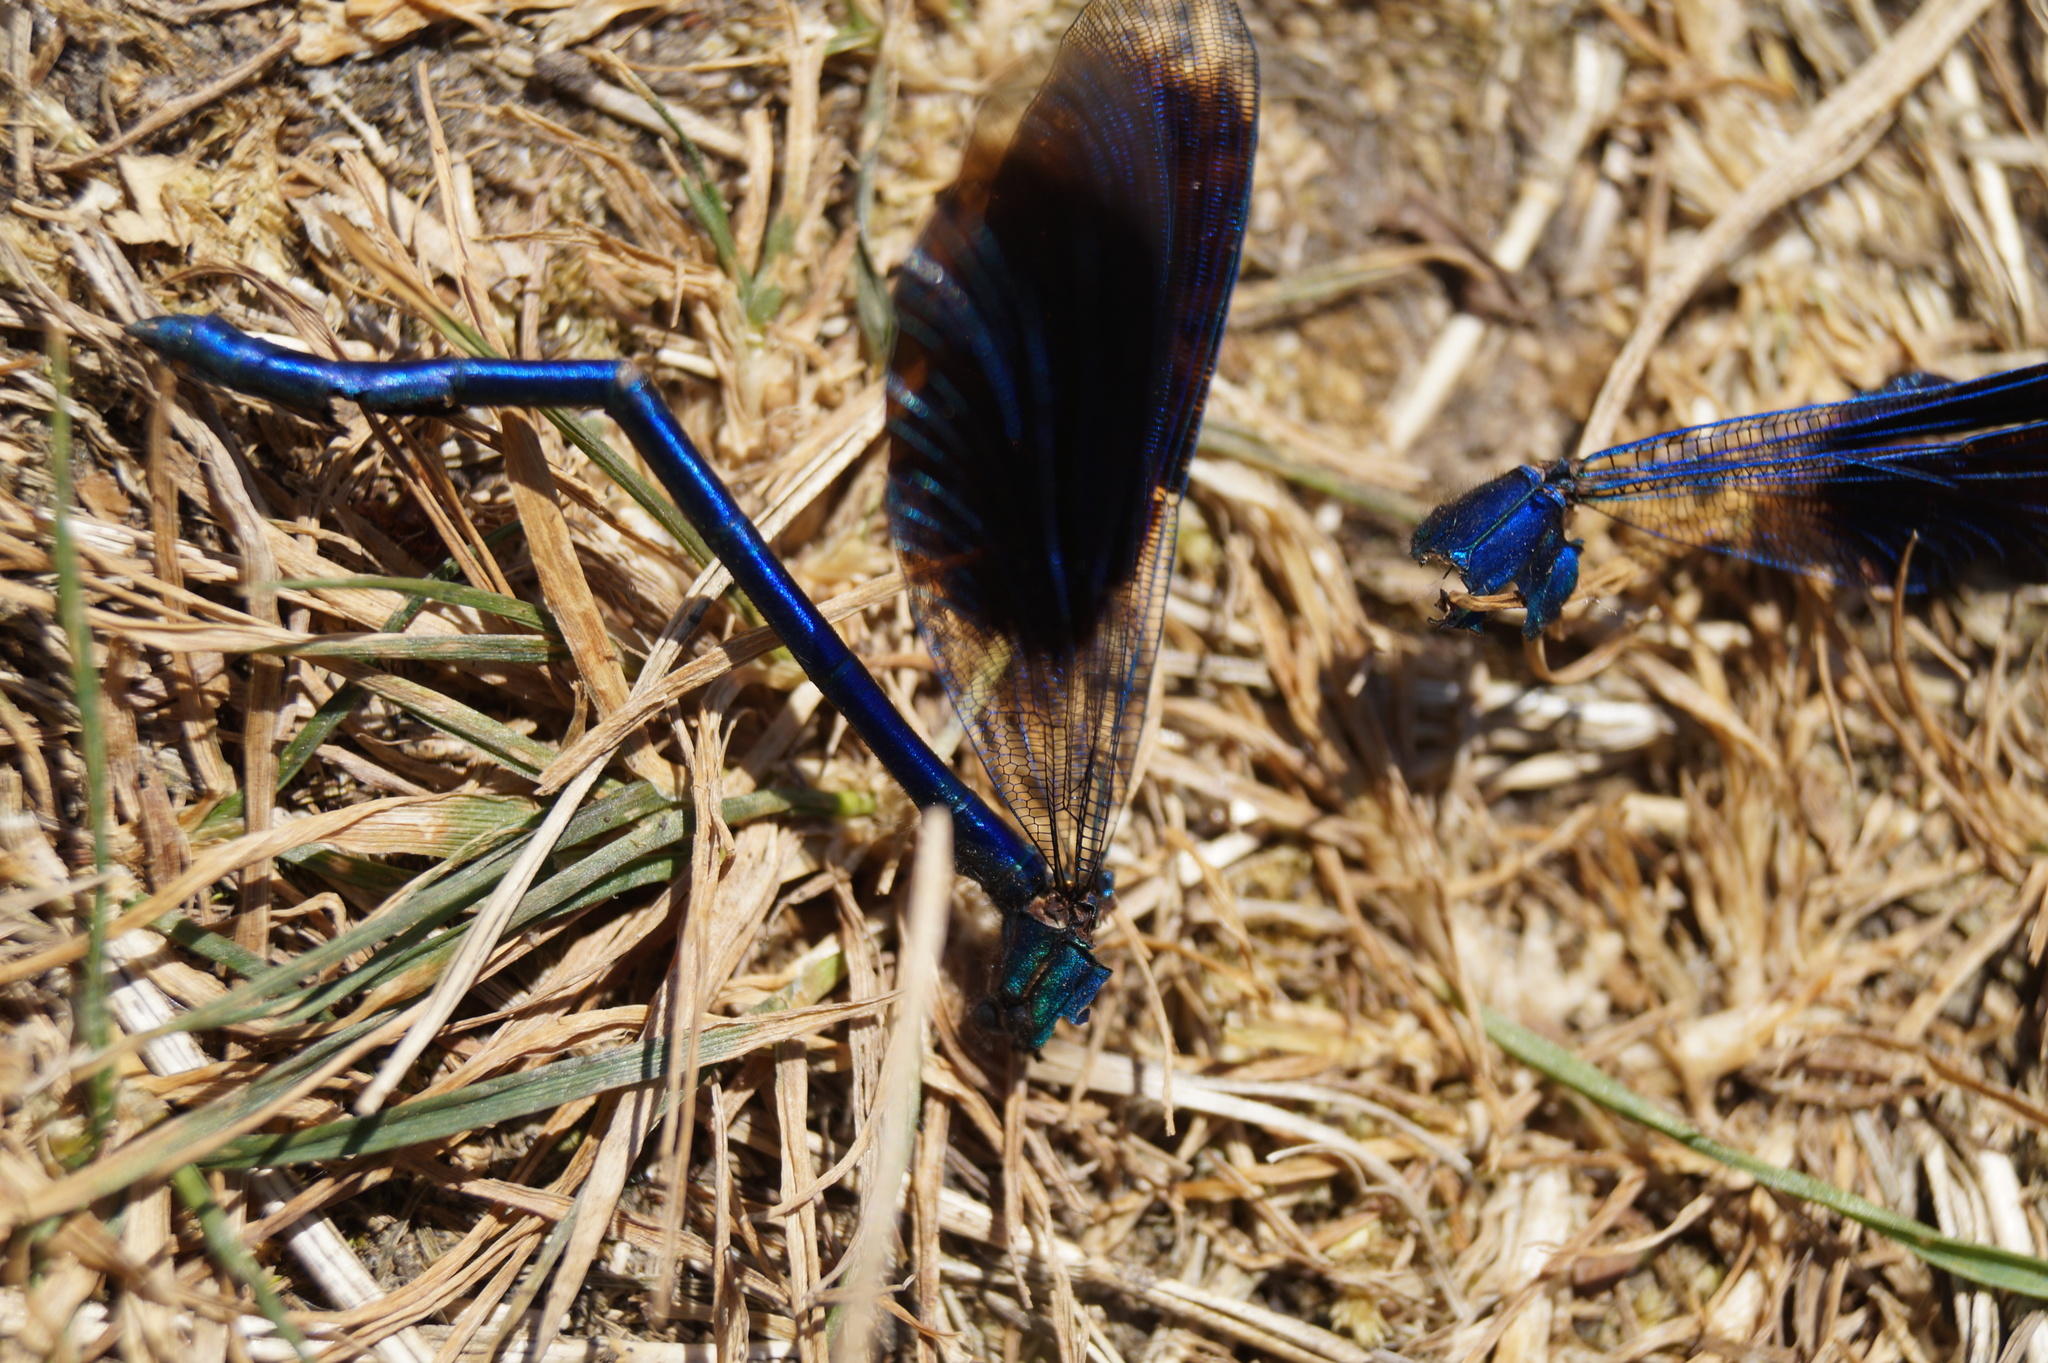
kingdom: Animalia
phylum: Arthropoda
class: Insecta
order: Odonata
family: Calopterygidae
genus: Calopteryx
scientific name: Calopteryx splendens
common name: Banded demoiselle
